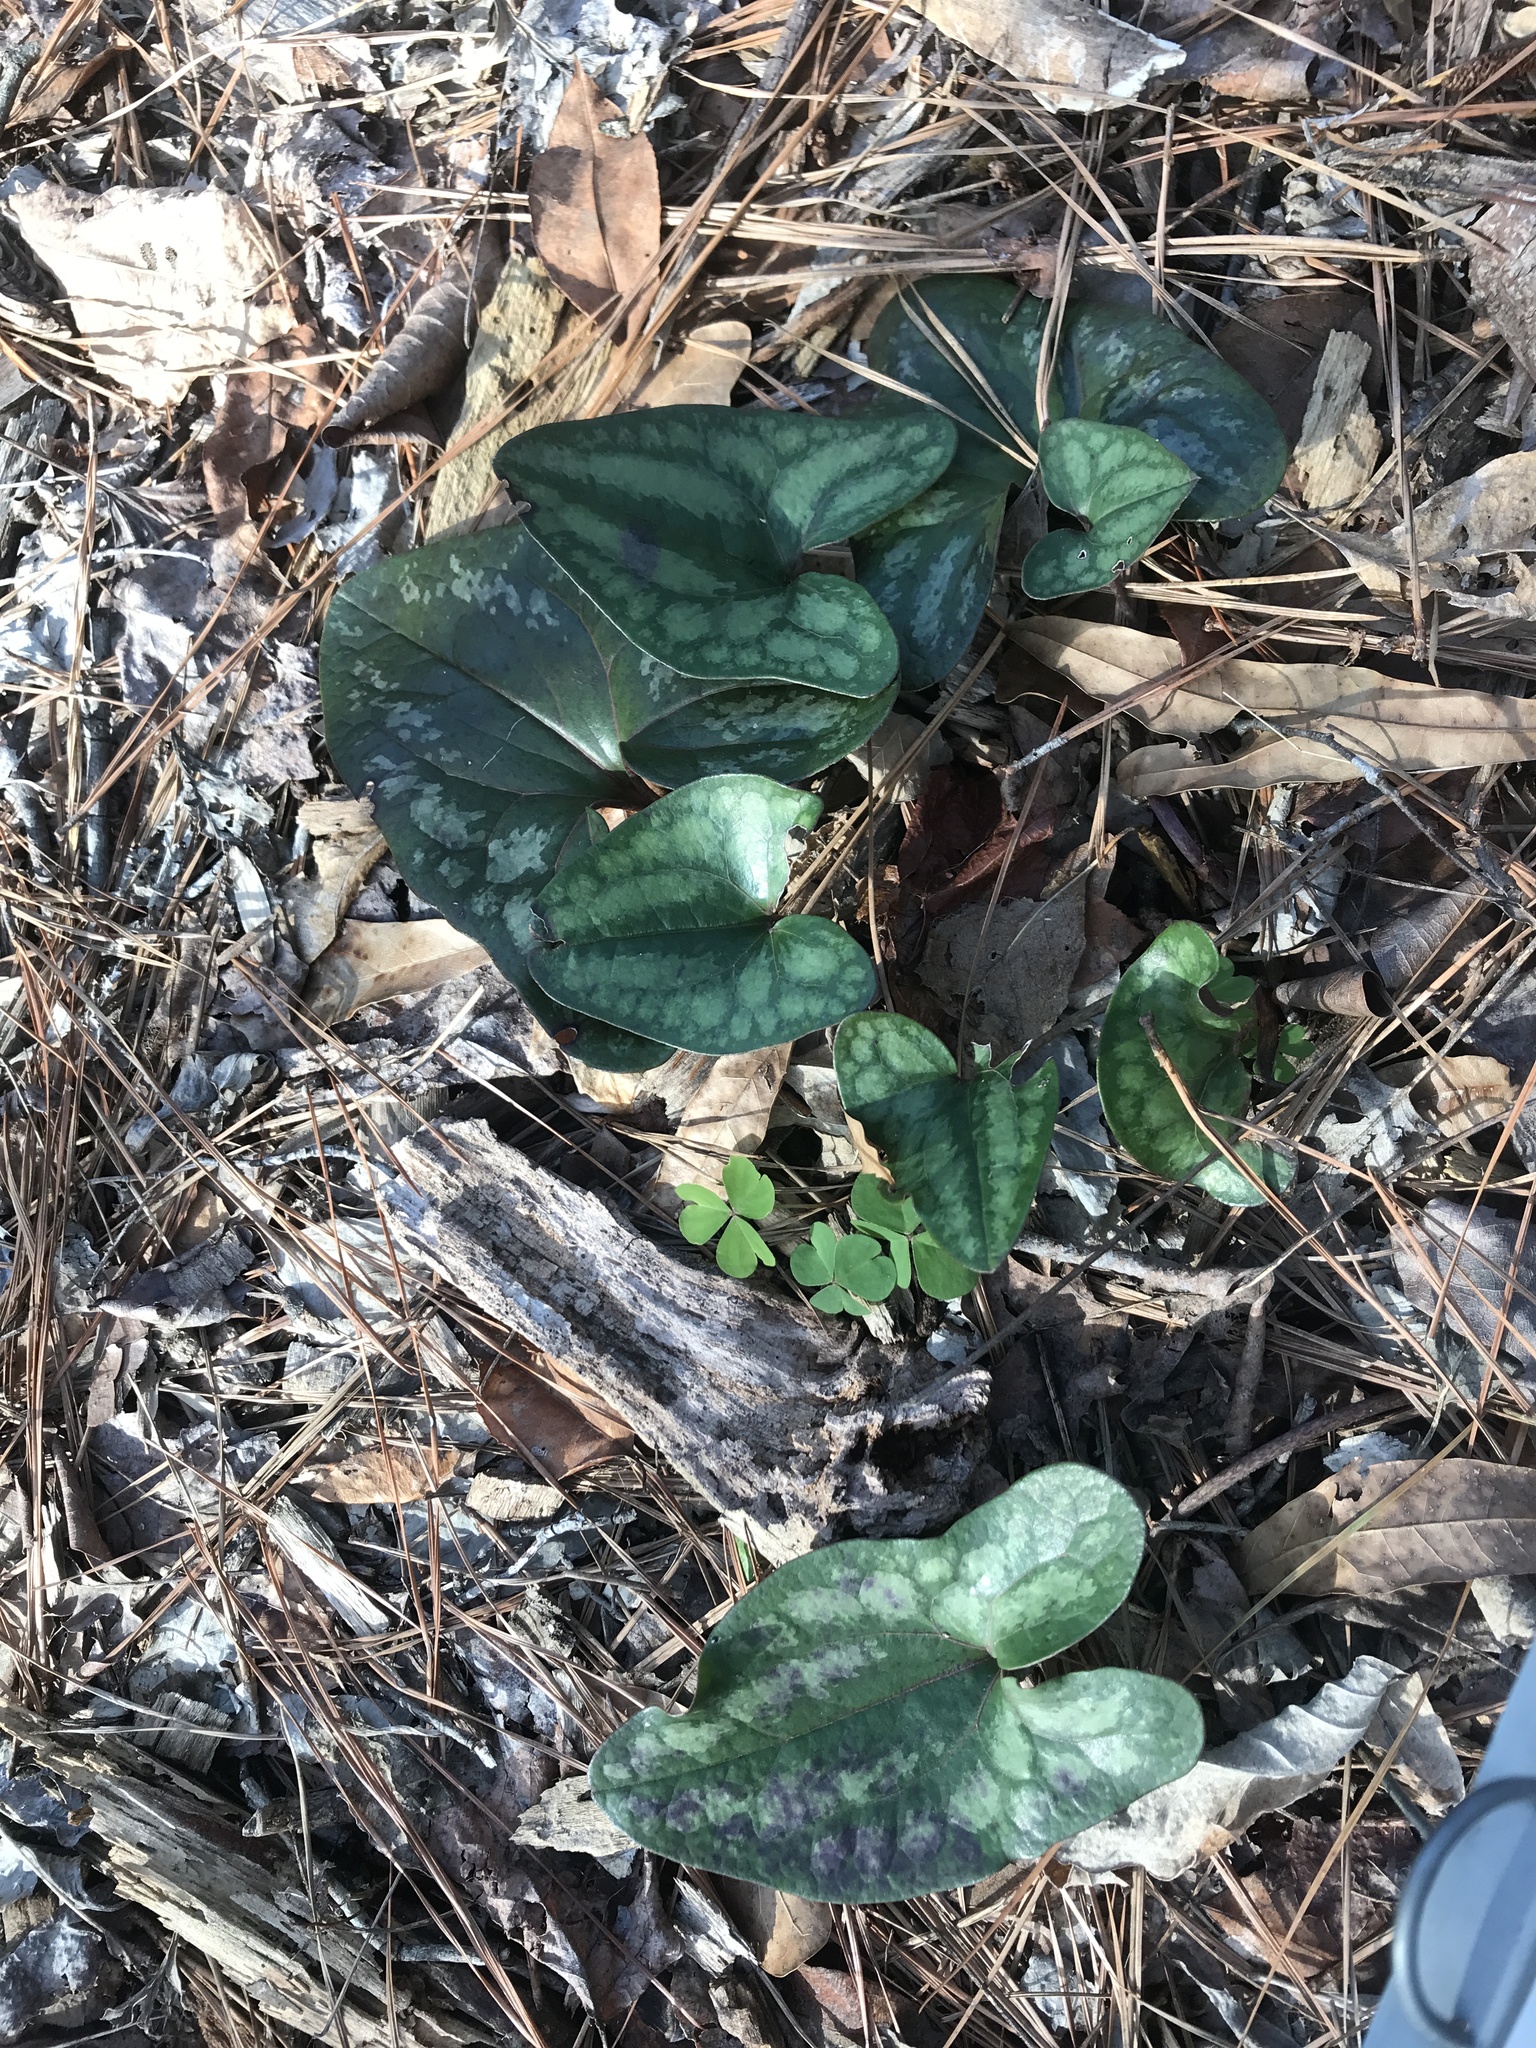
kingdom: Plantae
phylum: Tracheophyta
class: Magnoliopsida
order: Piperales
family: Aristolochiaceae
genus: Hexastylis
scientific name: Hexastylis arifolia
